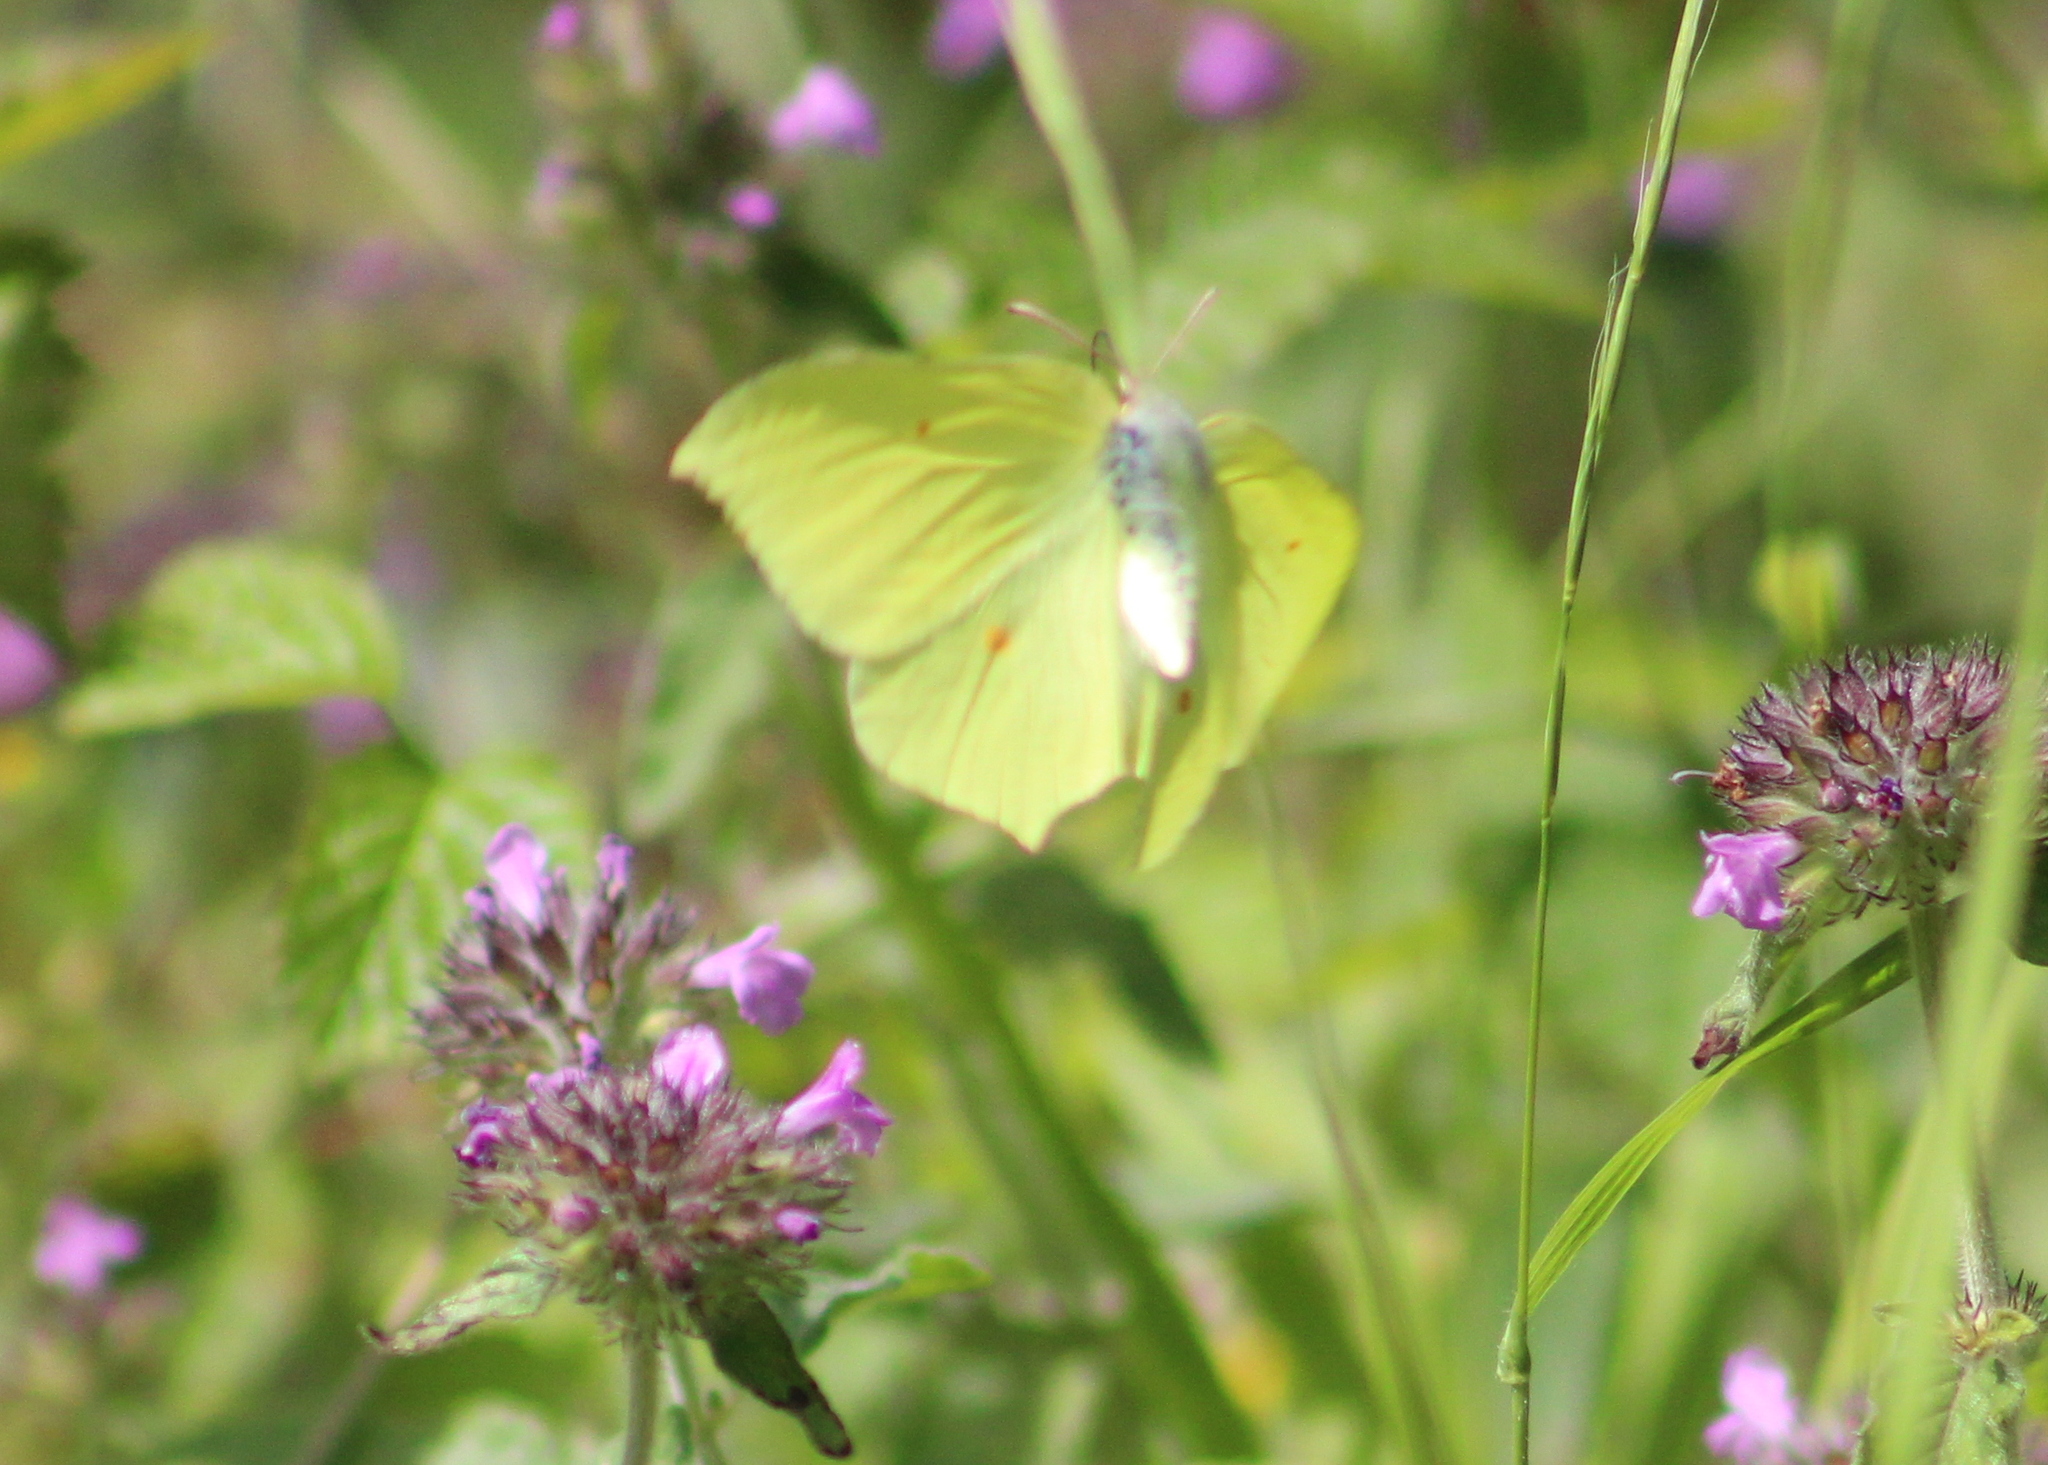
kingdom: Animalia
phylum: Arthropoda
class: Insecta
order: Lepidoptera
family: Pieridae
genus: Gonepteryx
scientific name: Gonepteryx rhamni
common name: Brimstone
